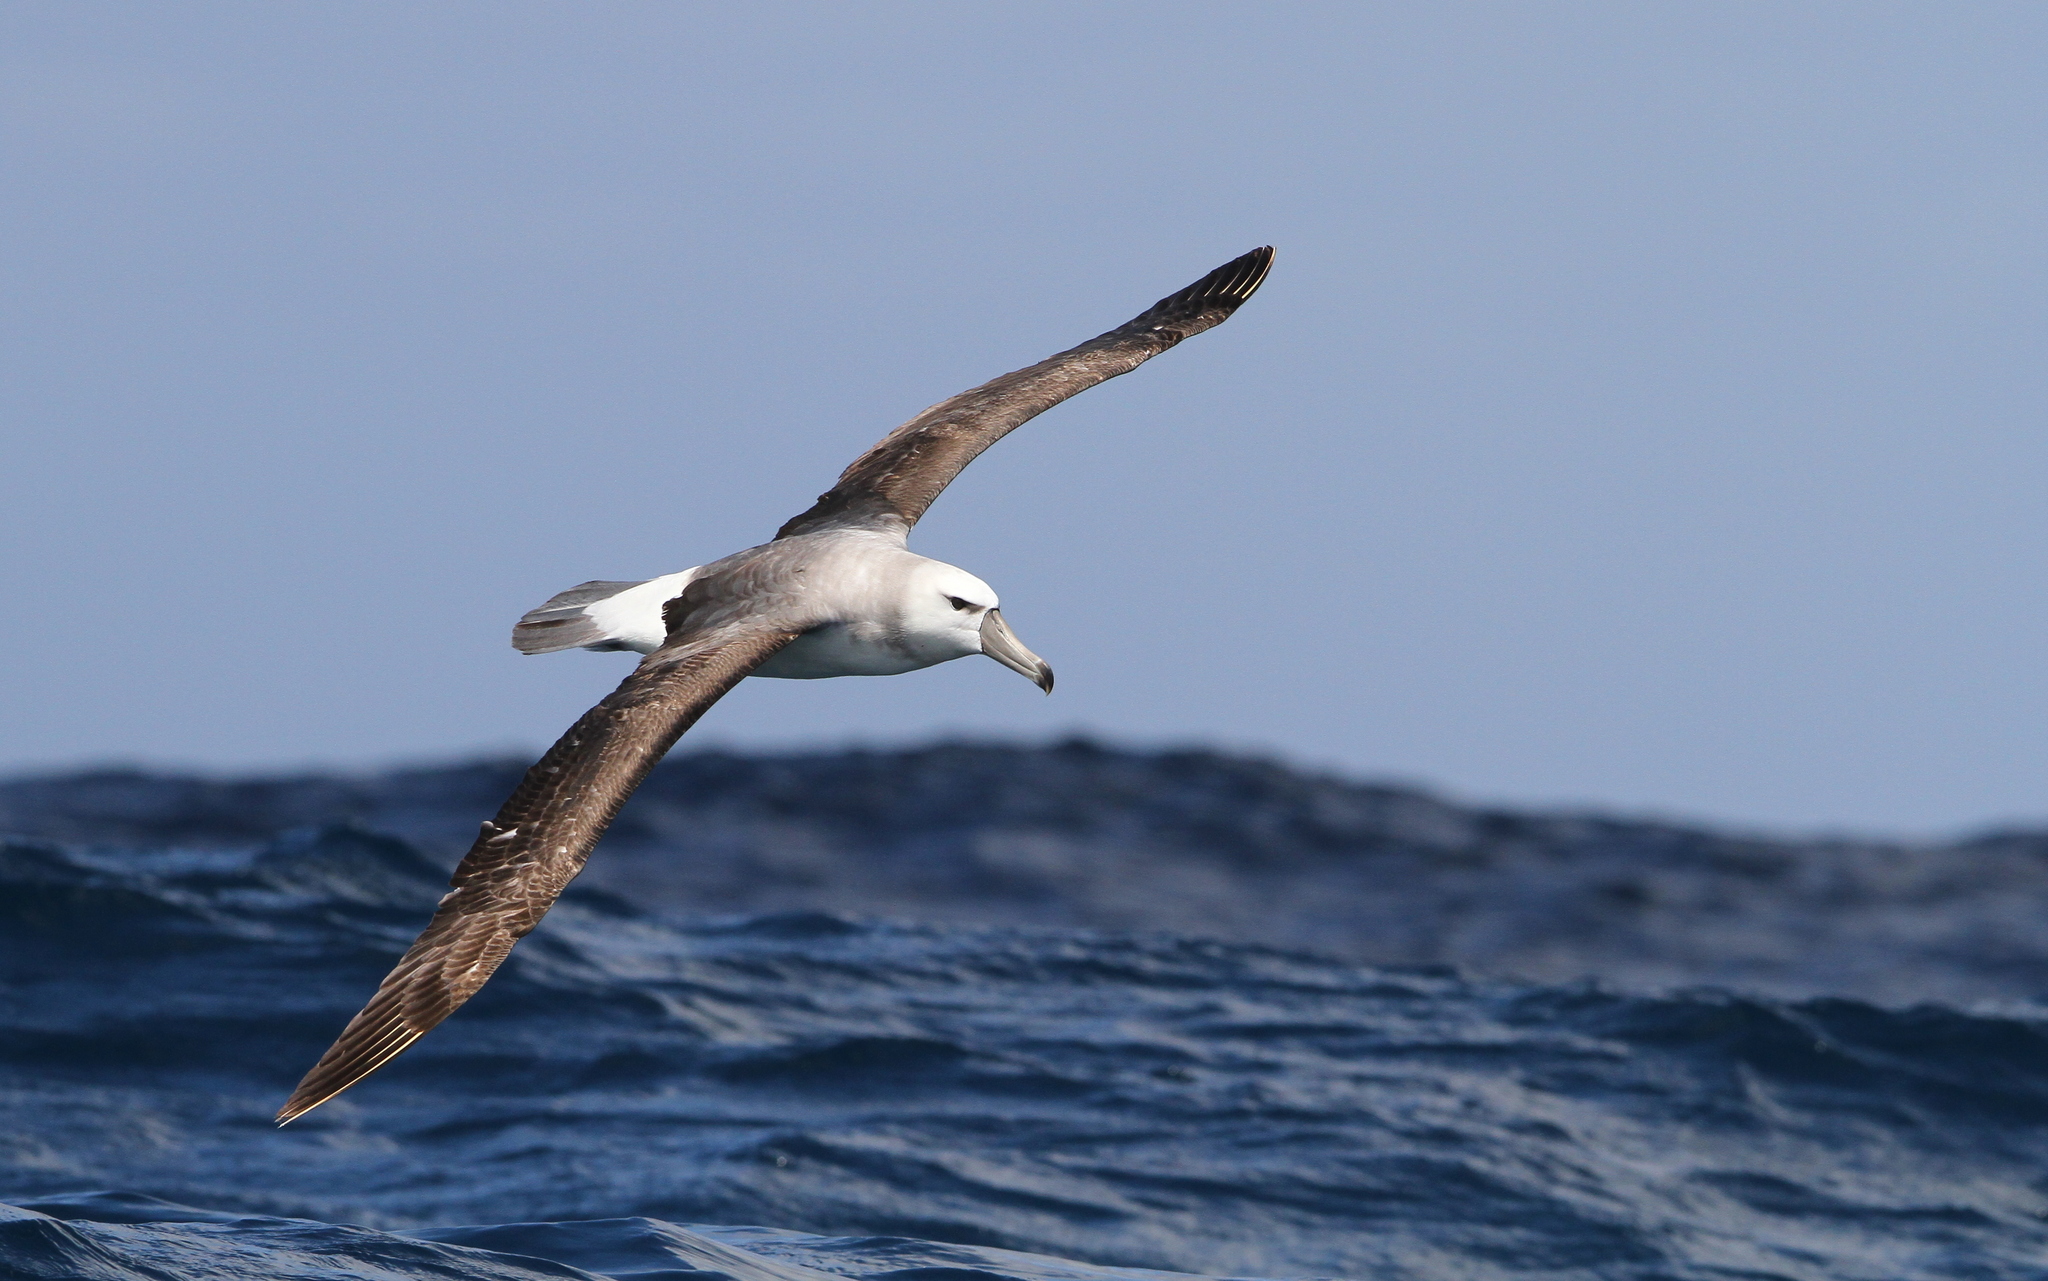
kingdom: Animalia
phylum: Chordata
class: Aves
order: Procellariiformes
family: Diomedeidae
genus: Thalassarche
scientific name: Thalassarche cauta
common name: Shy albatross
